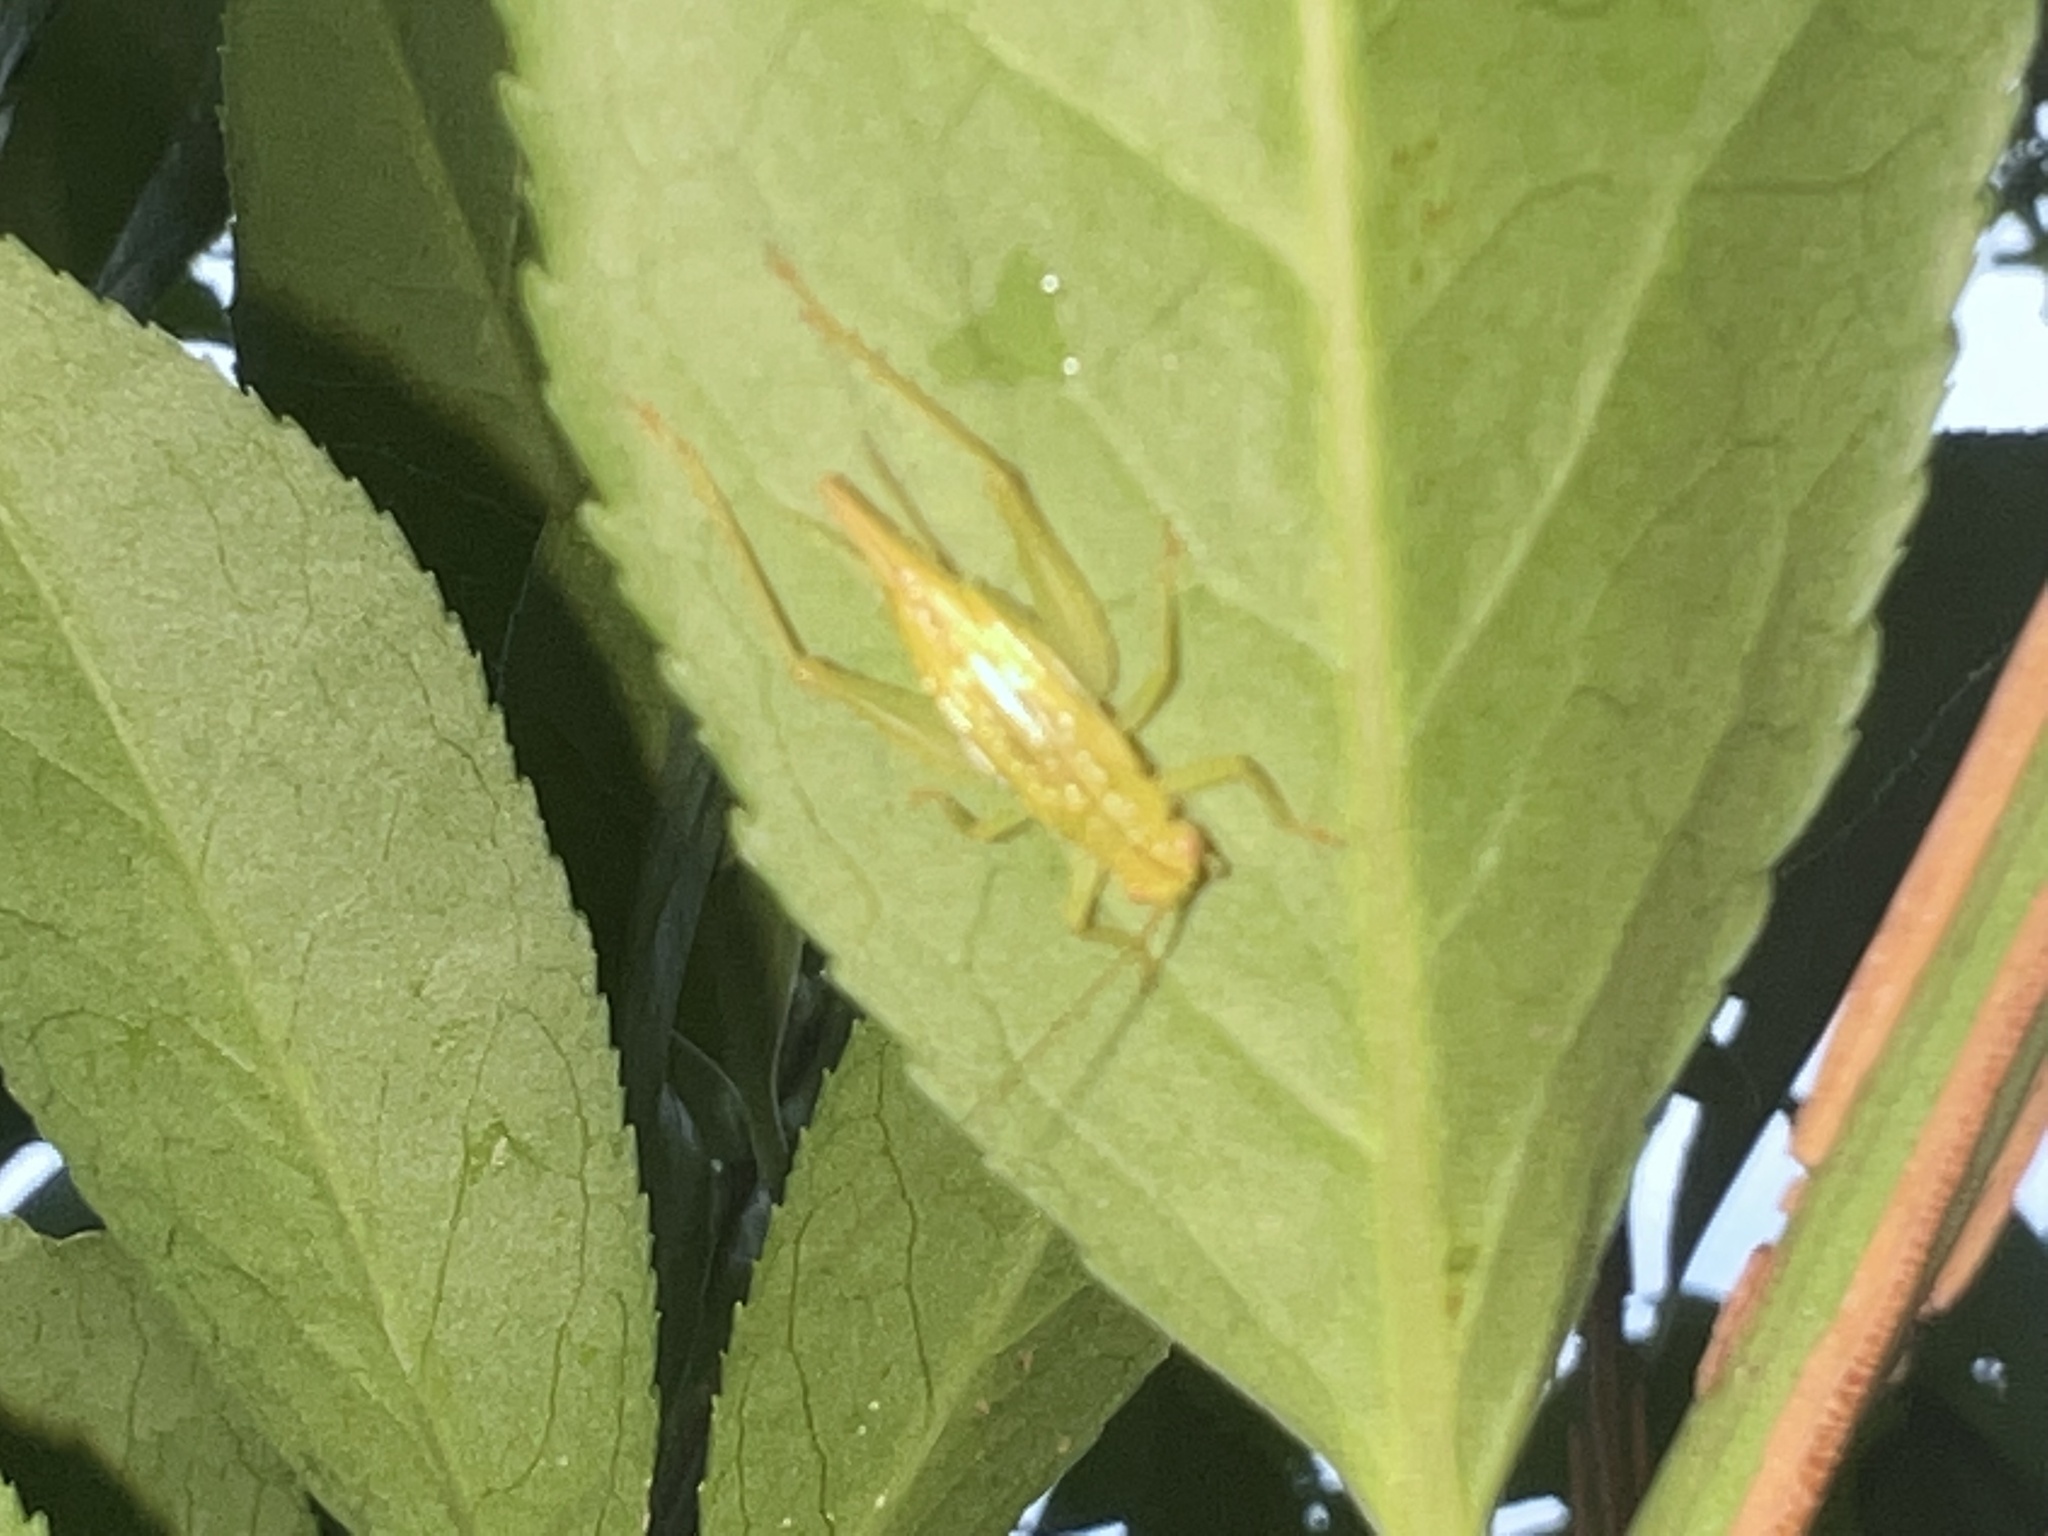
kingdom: Animalia
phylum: Arthropoda
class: Insecta
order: Orthoptera
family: Trigonidiidae
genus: Cyrtoxipha
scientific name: Cyrtoxipha columbiana
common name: Columbian trig
